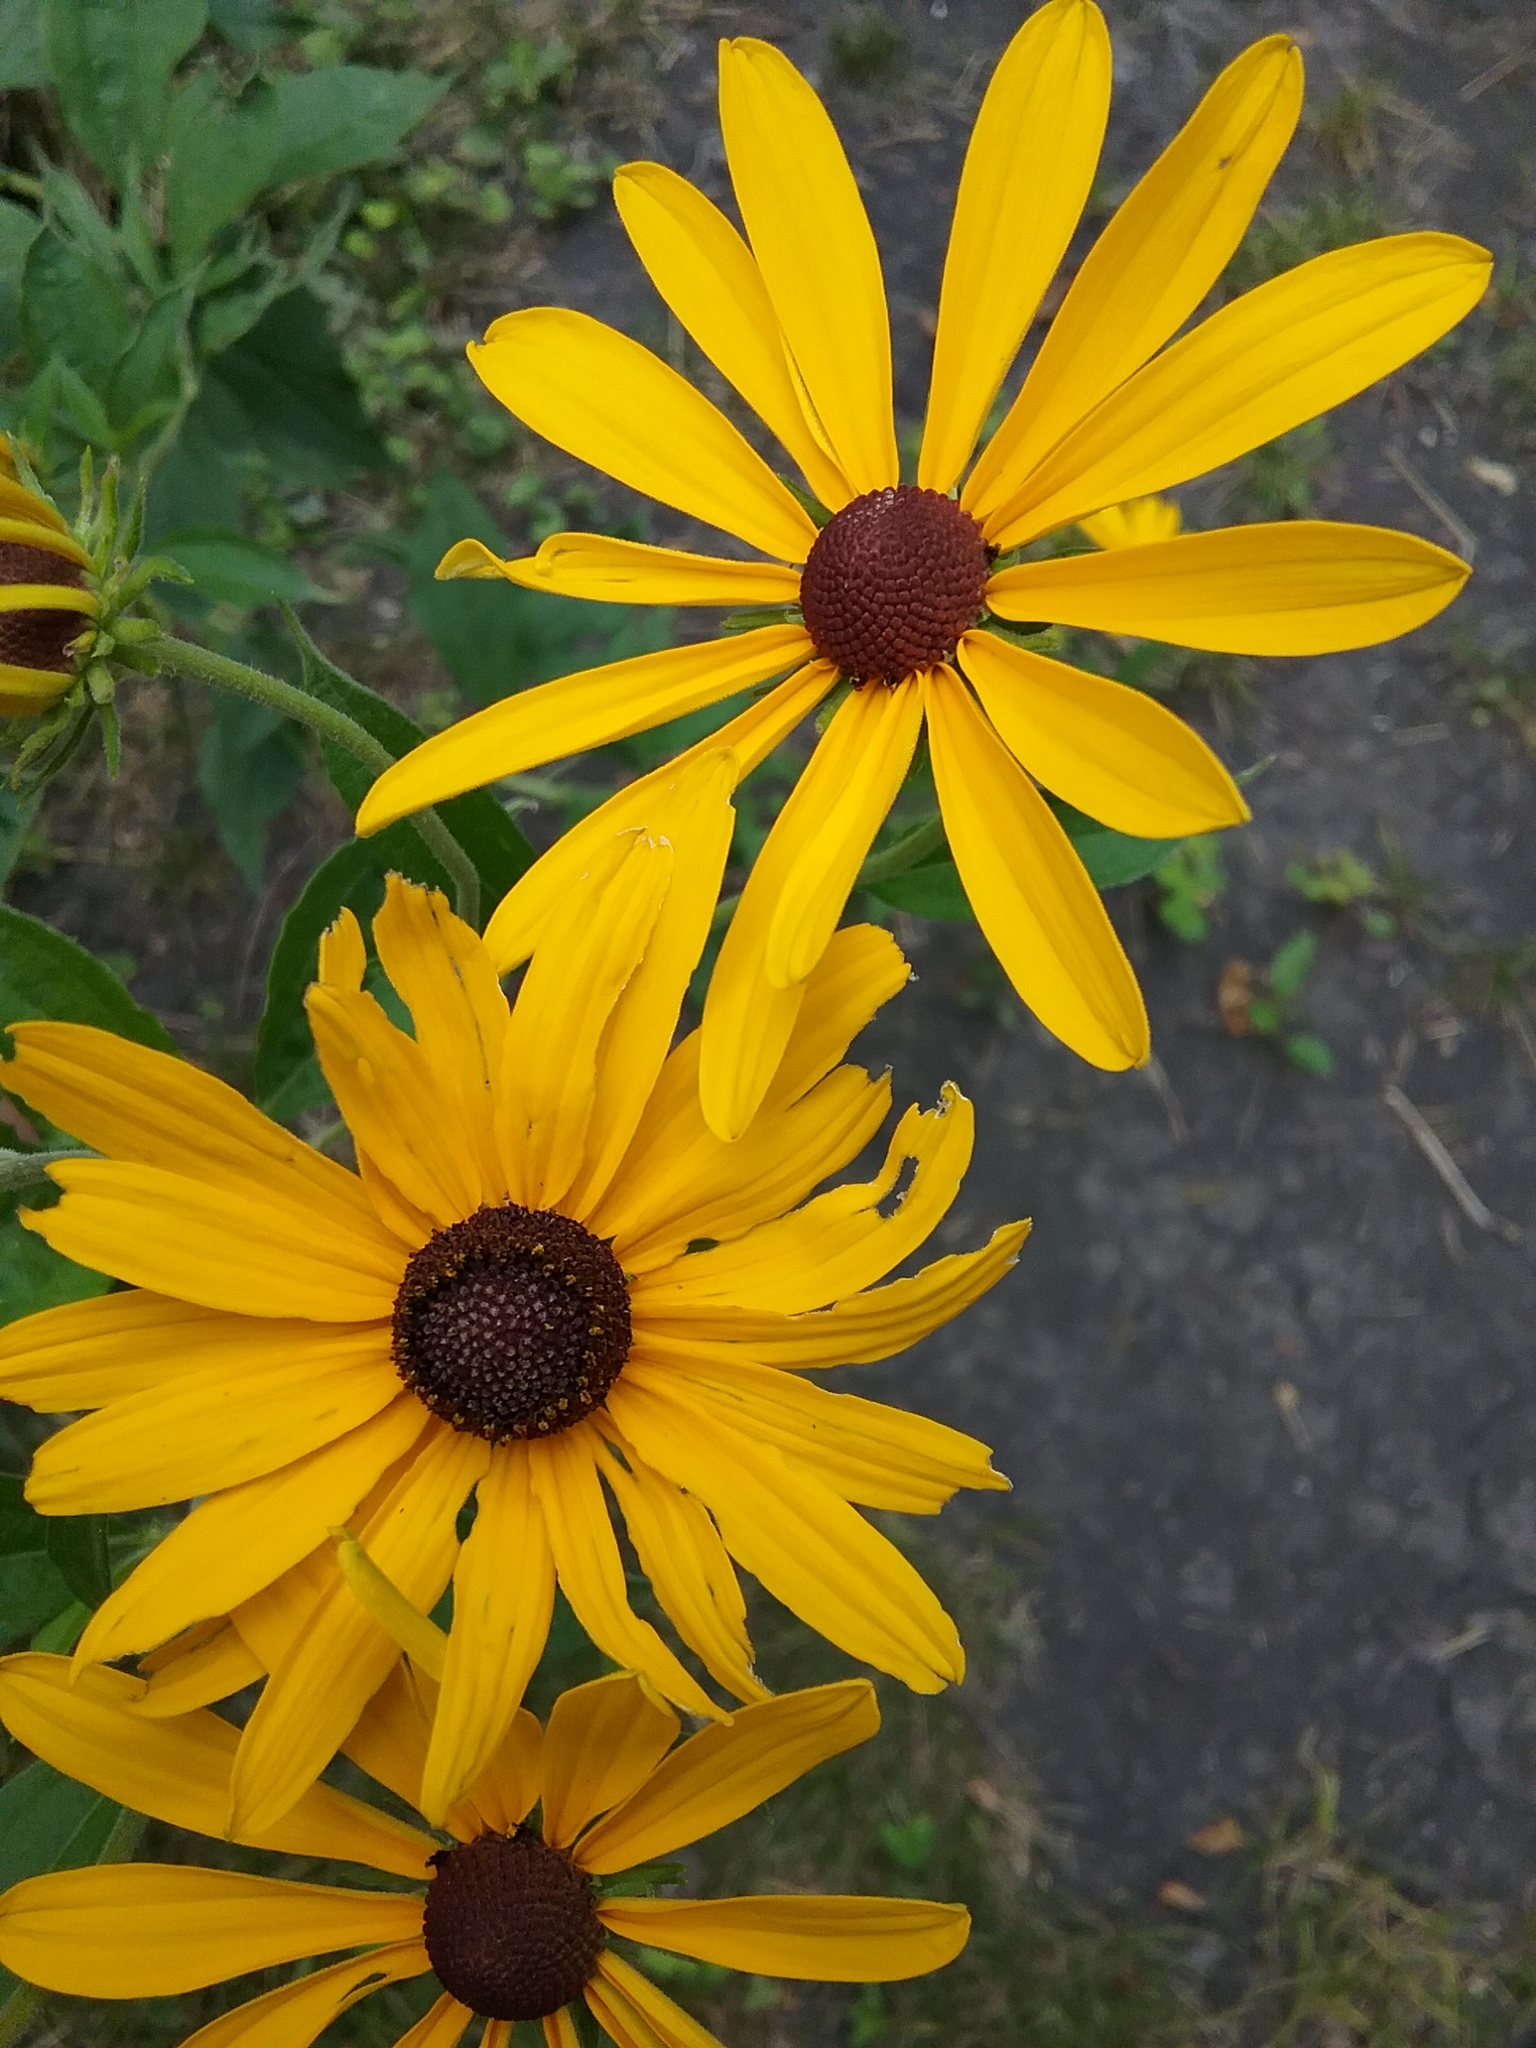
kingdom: Plantae
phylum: Tracheophyta
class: Magnoliopsida
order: Asterales
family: Asteraceae
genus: Rudbeckia
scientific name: Rudbeckia subtomentosa
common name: Sweet coneflower
